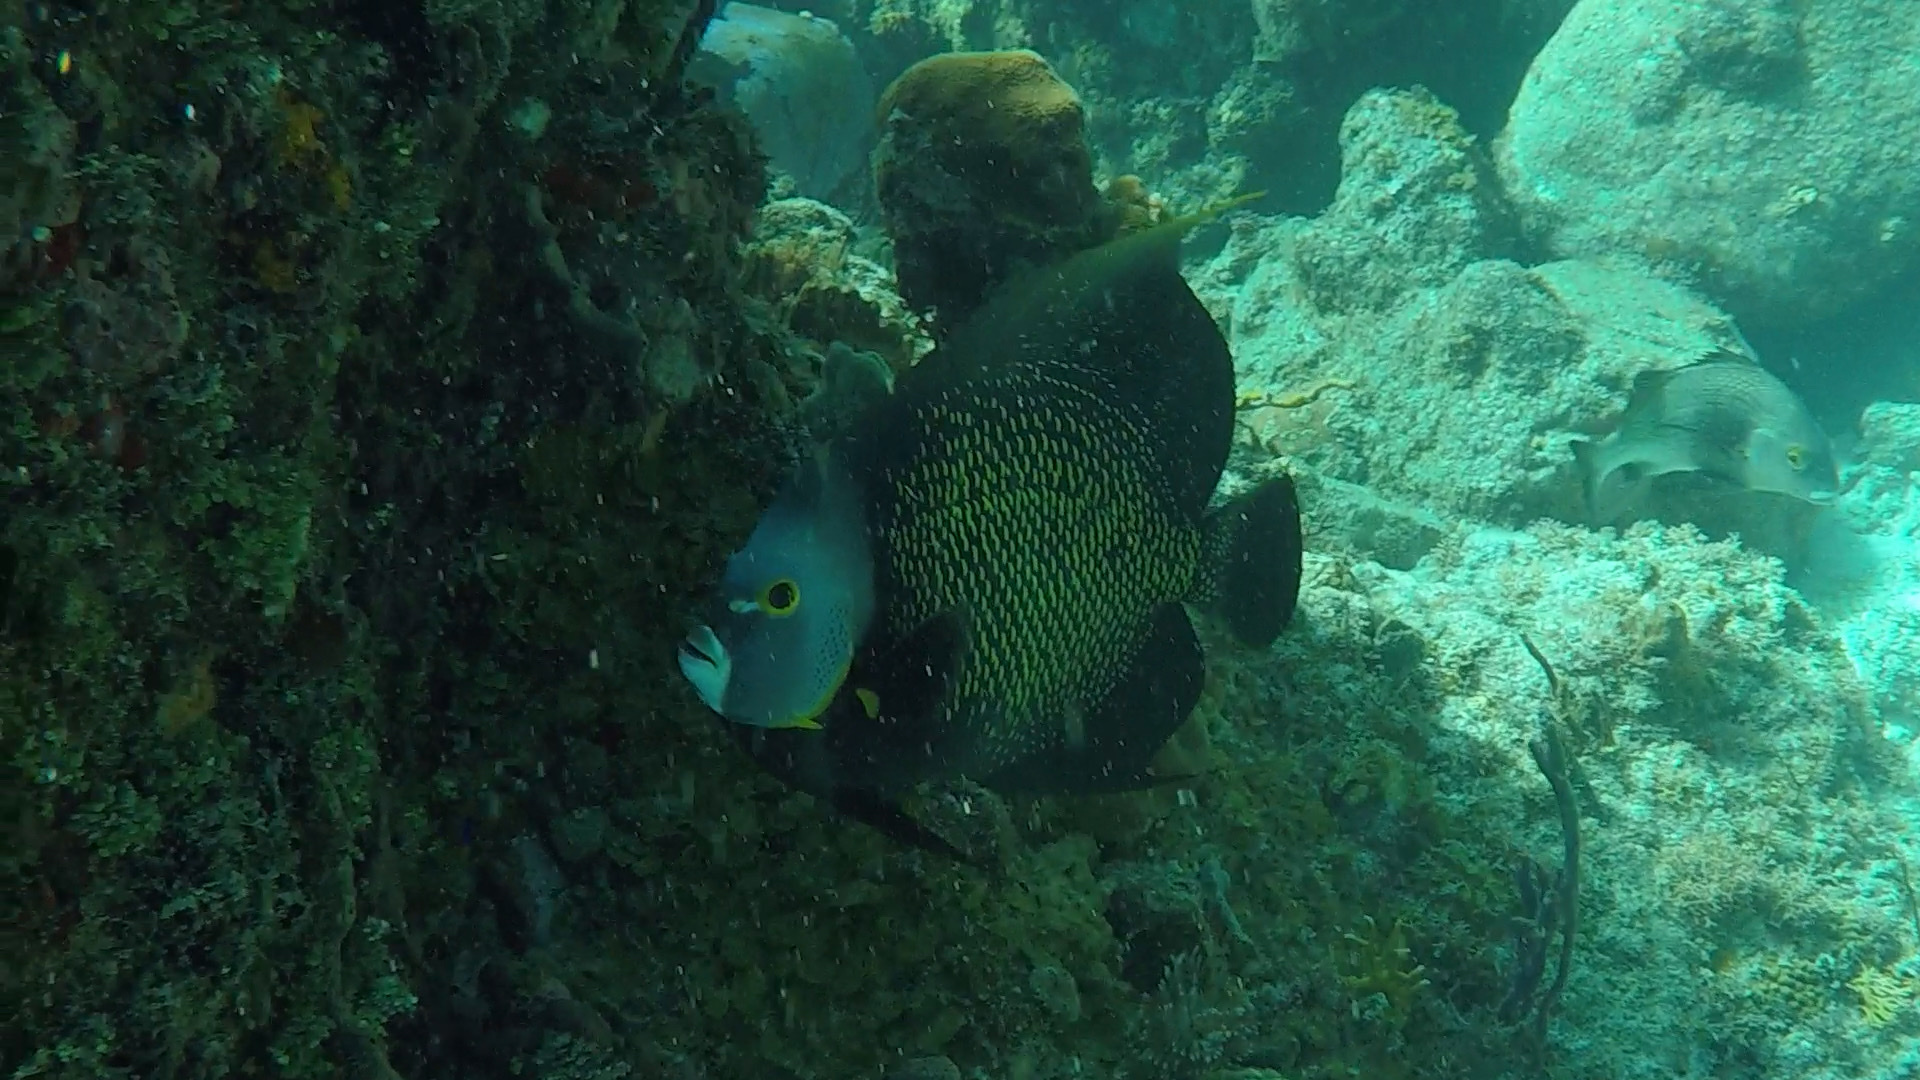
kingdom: Animalia
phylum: Chordata
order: Perciformes
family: Pomacanthidae
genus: Pomacanthus
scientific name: Pomacanthus paru
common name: French angelfish
